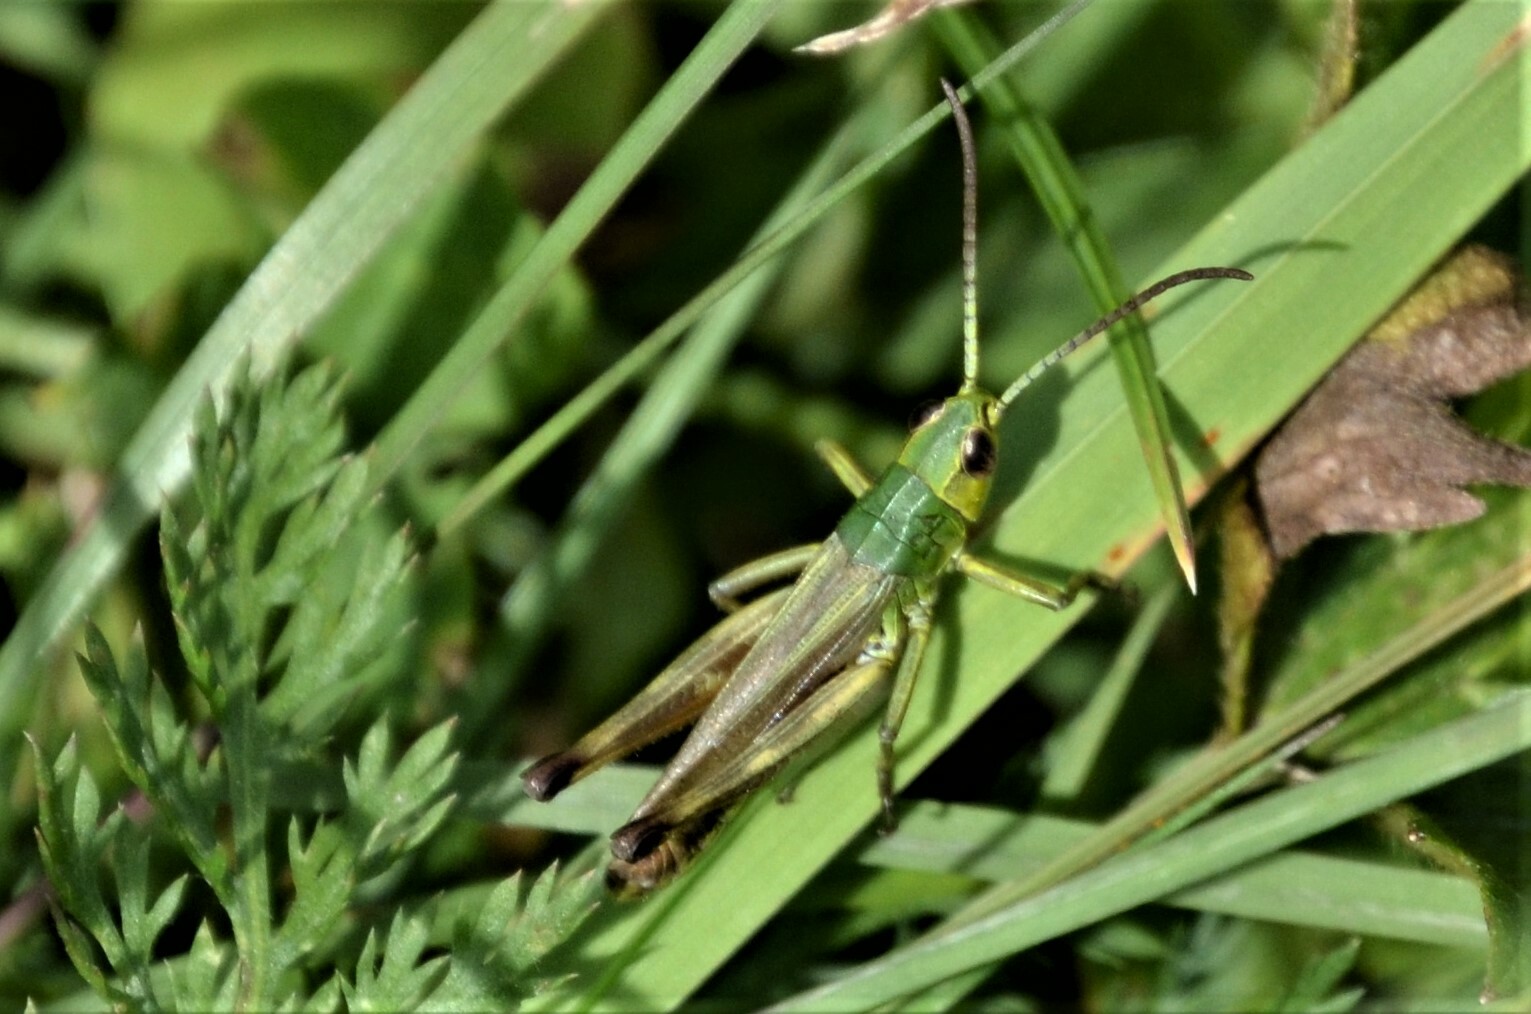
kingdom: Animalia
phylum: Arthropoda
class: Insecta
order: Orthoptera
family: Acrididae
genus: Pseudochorthippus
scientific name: Pseudochorthippus parallelus
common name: Meadow grasshopper
